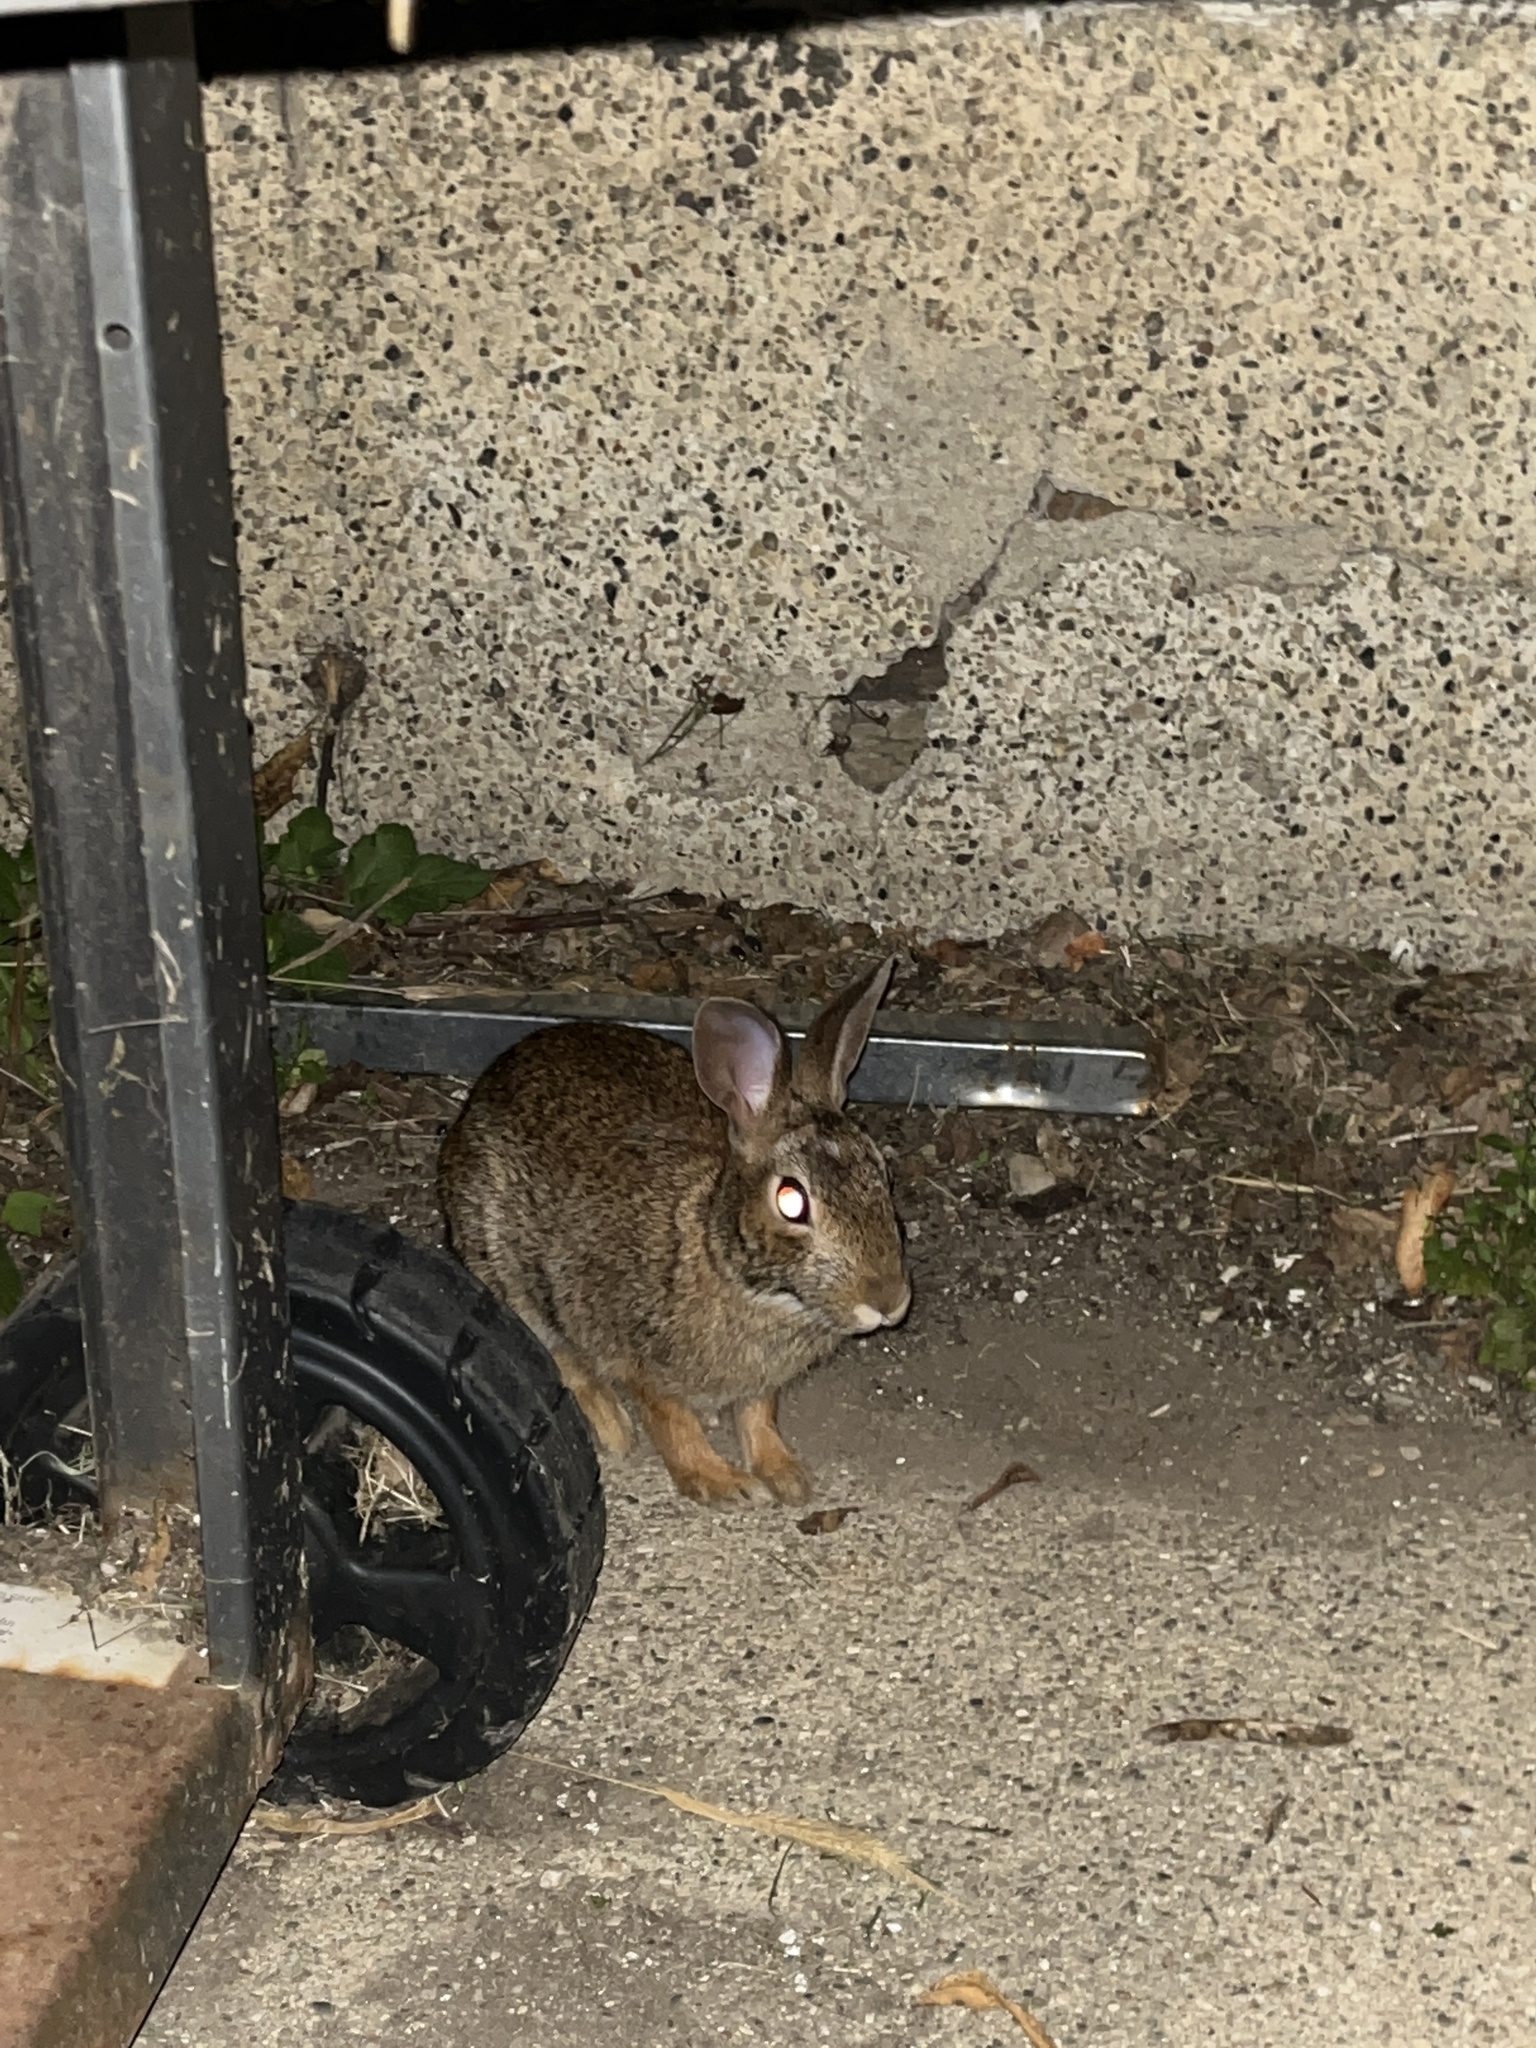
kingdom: Animalia
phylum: Chordata
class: Mammalia
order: Lagomorpha
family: Leporidae
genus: Sylvilagus
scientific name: Sylvilagus floridanus
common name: Eastern cottontail
